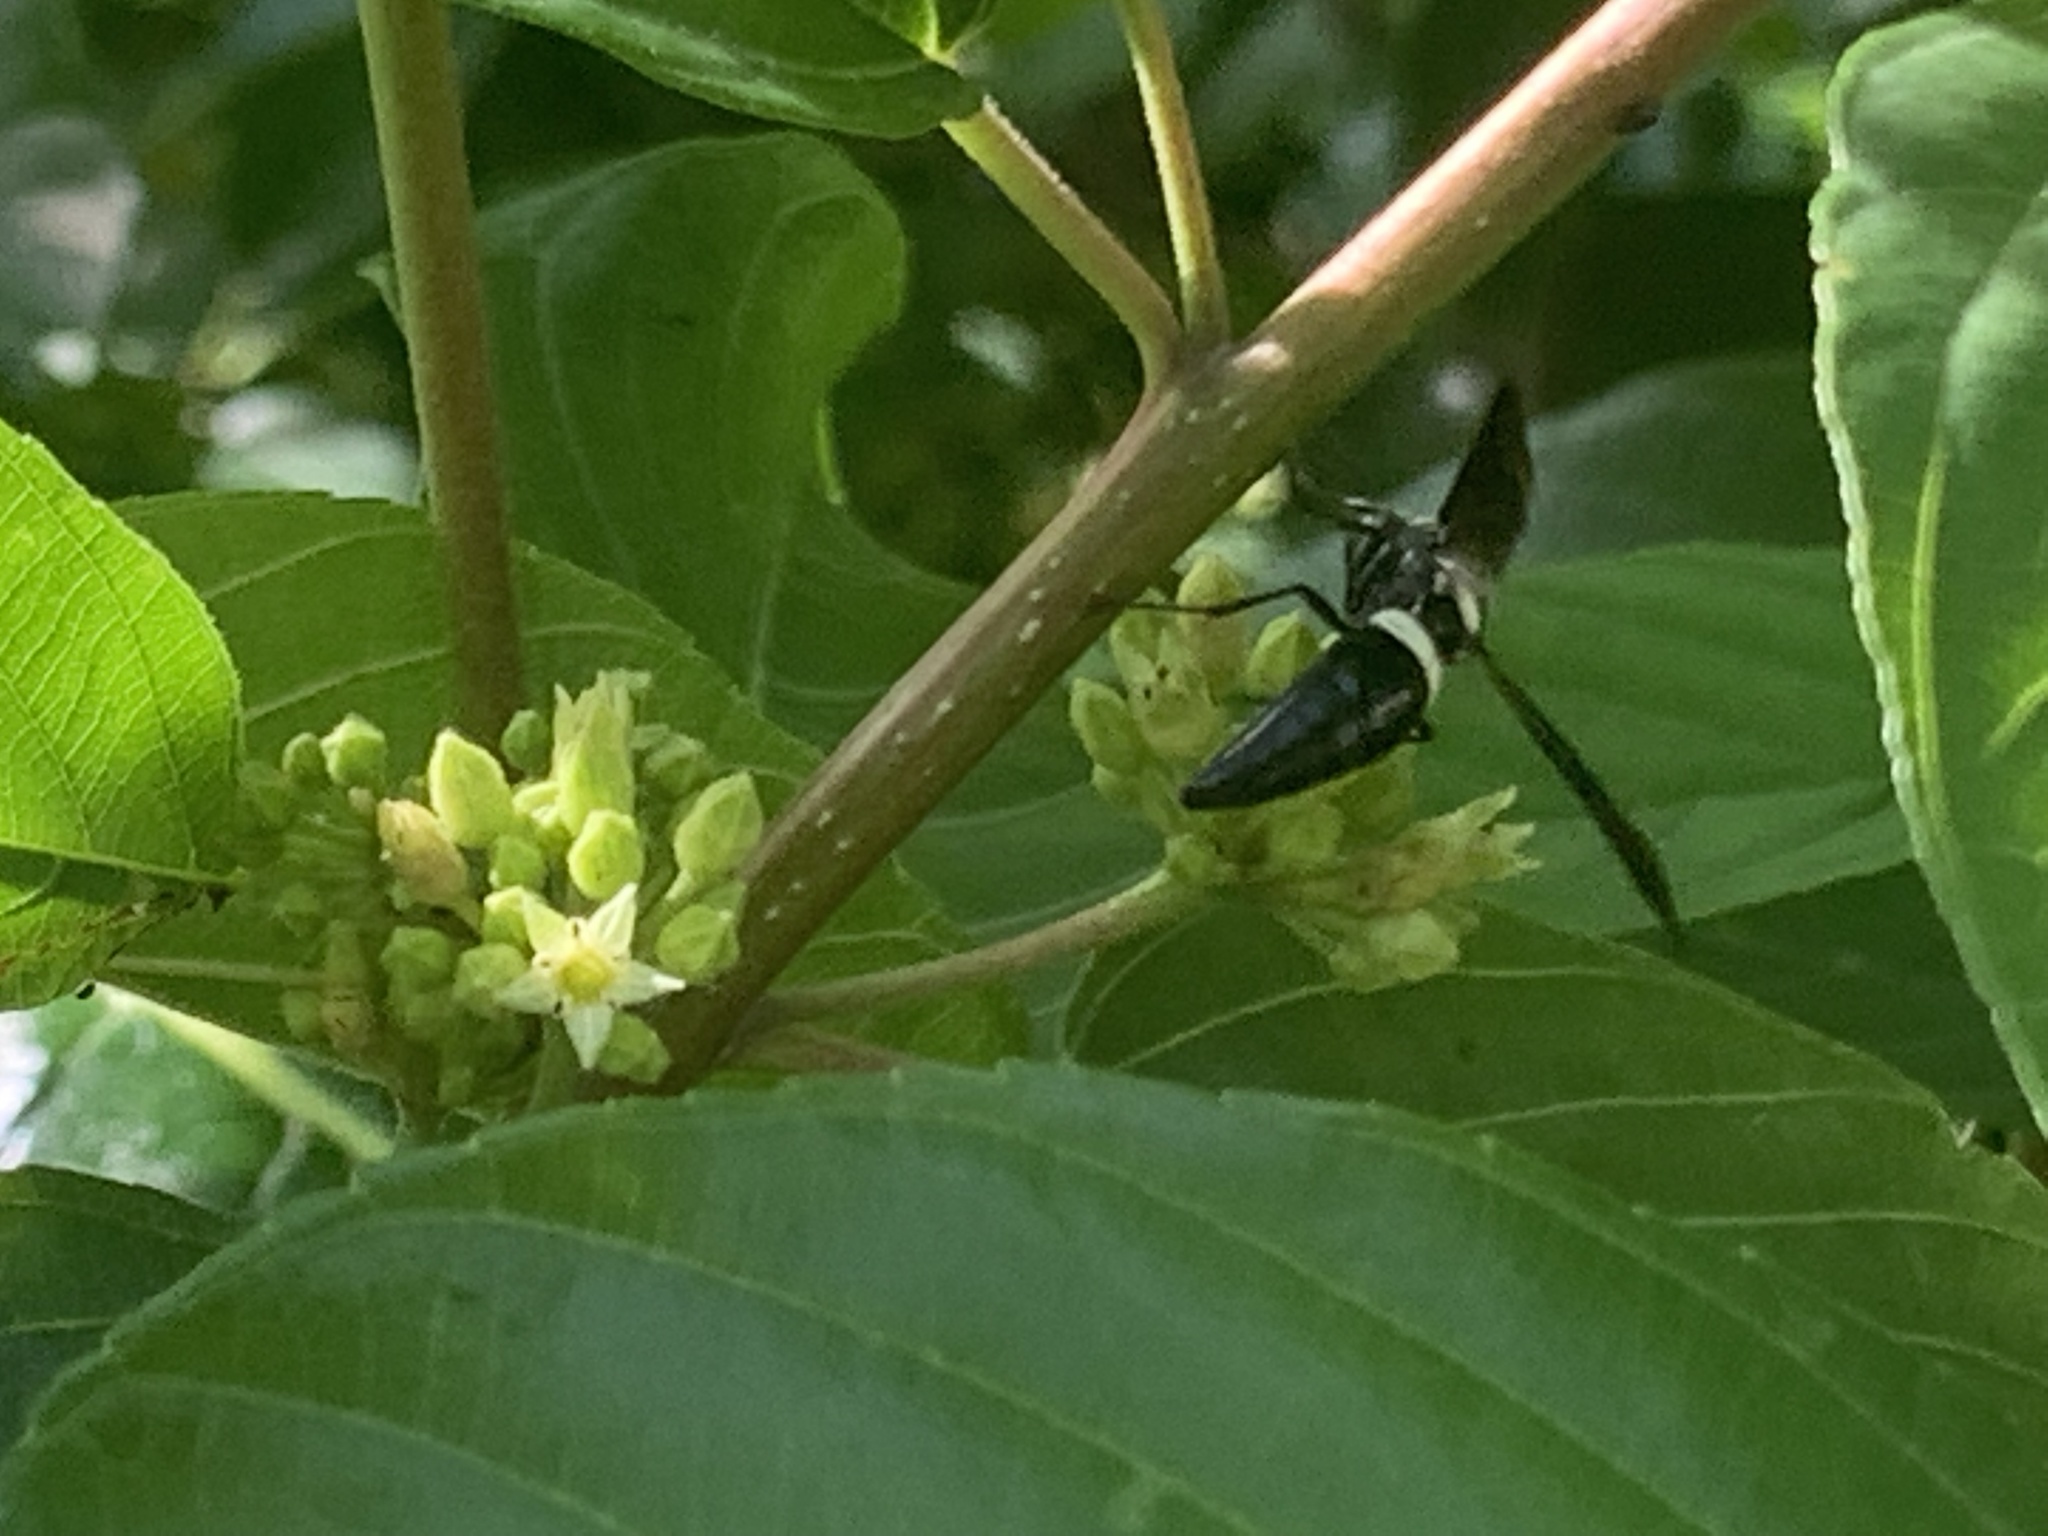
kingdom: Animalia
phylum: Arthropoda
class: Insecta
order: Hymenoptera
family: Eumenidae
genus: Monobia
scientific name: Monobia quadridens
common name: Four-toothed mason wasp
